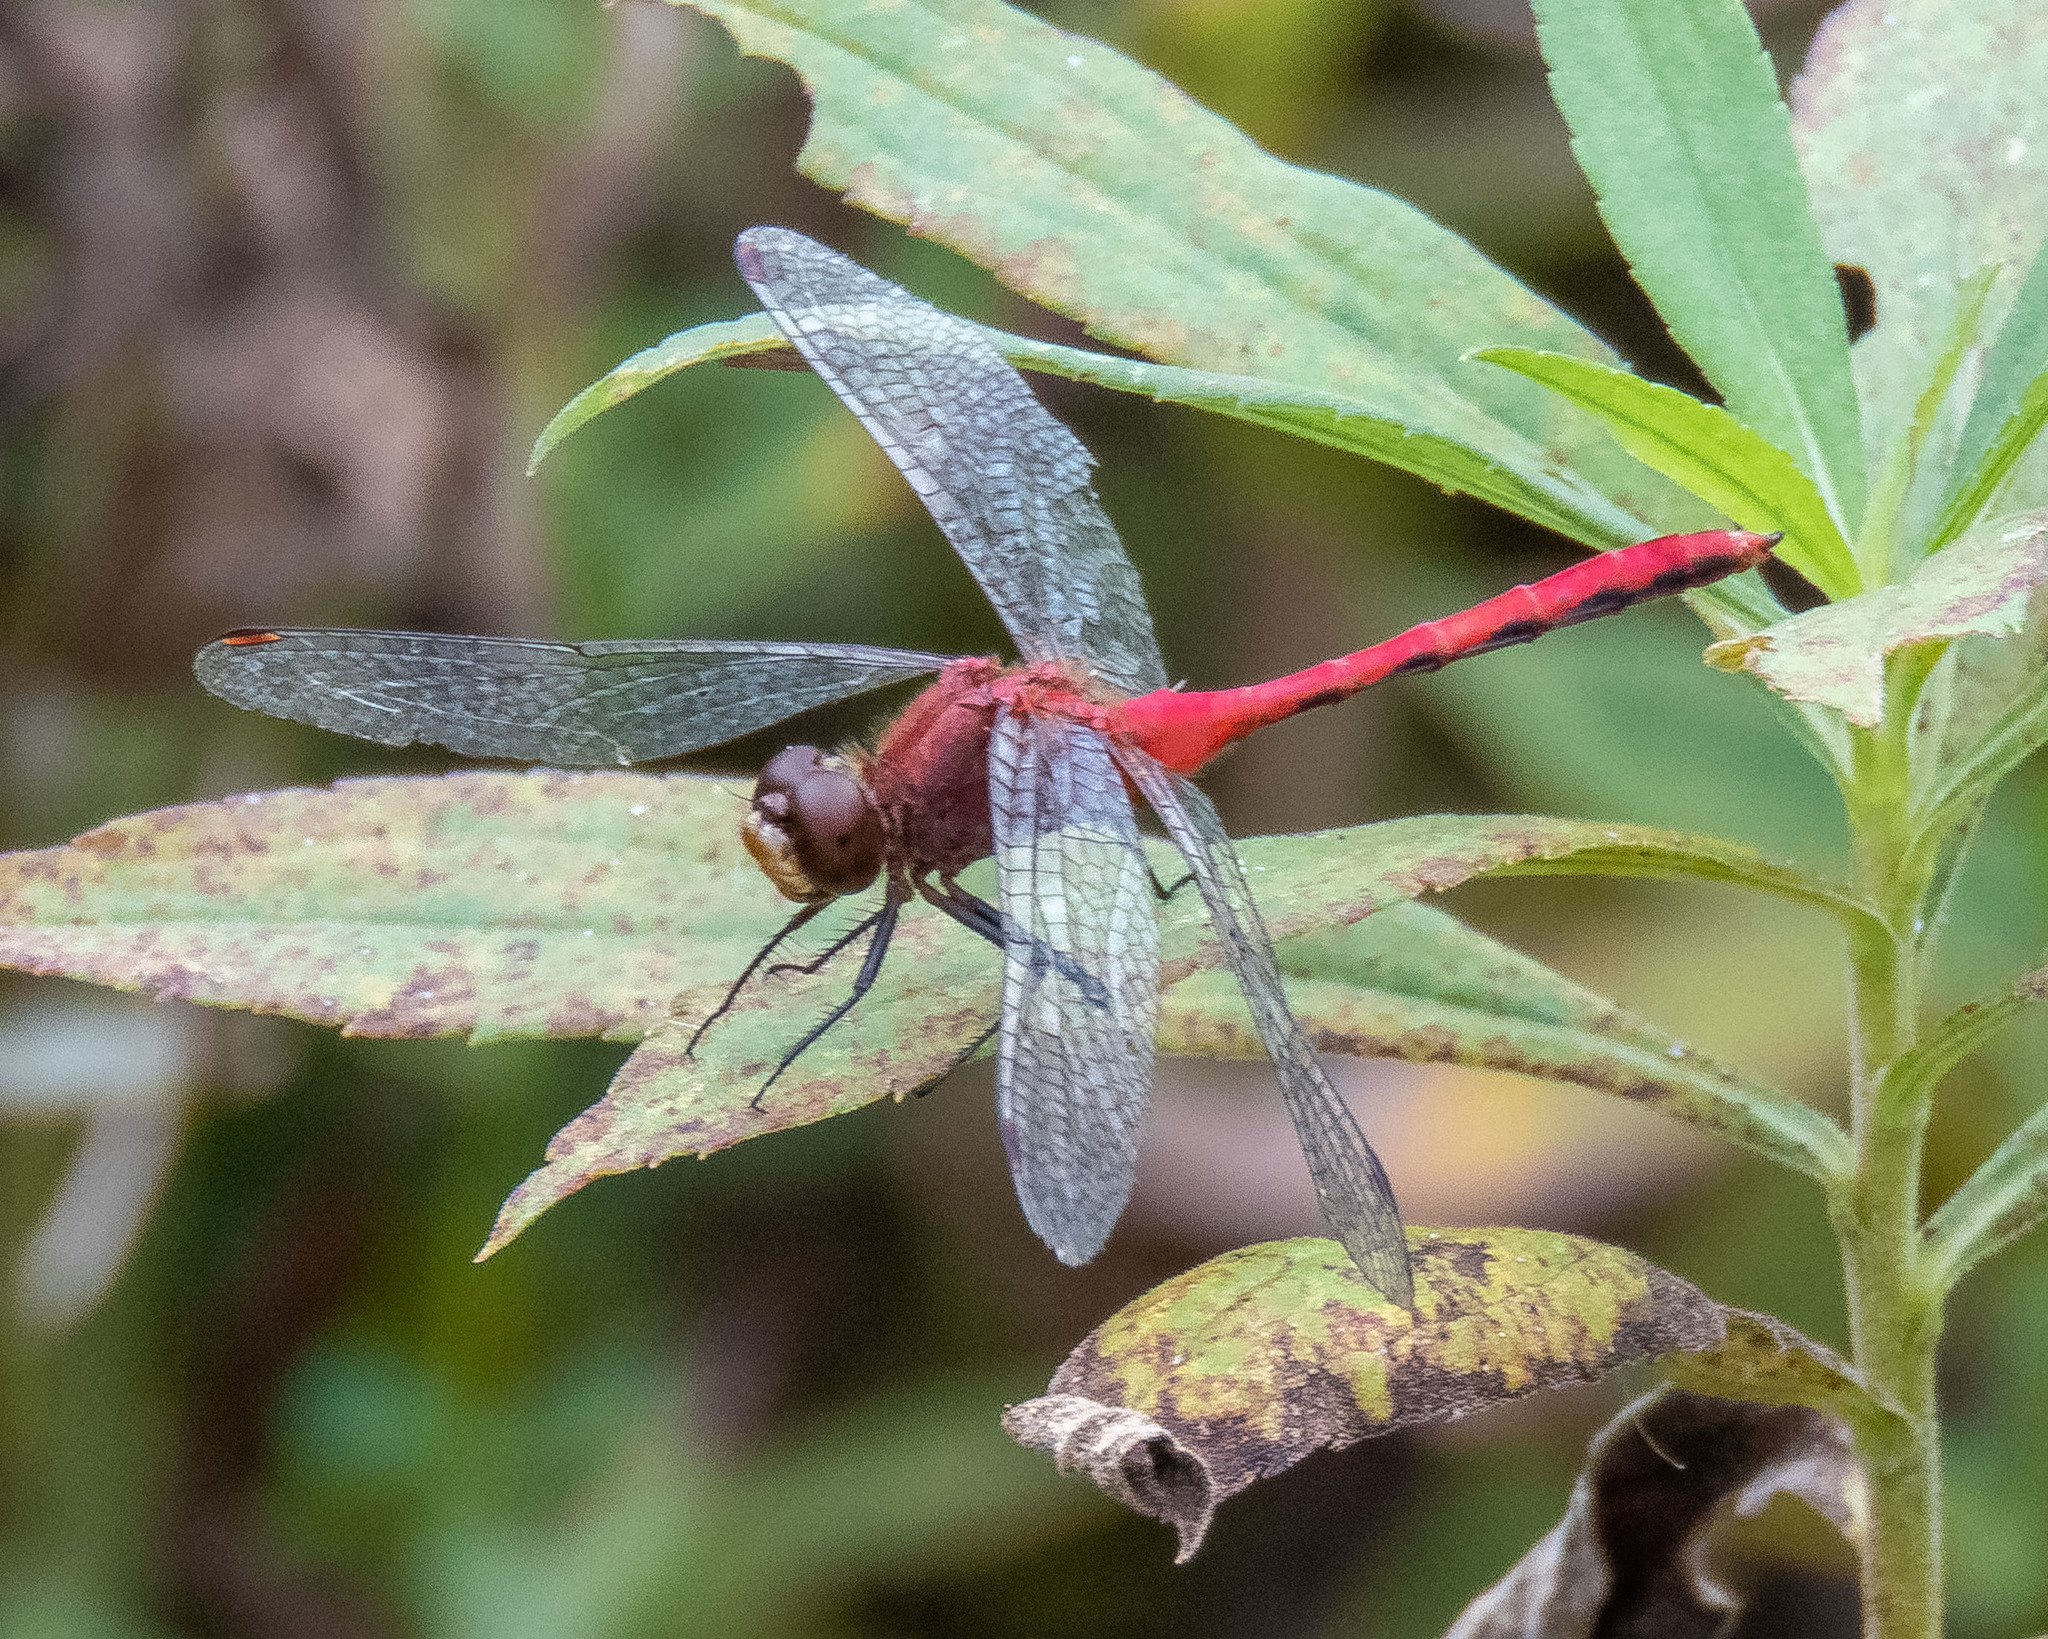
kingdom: Animalia
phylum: Arthropoda
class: Insecta
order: Odonata
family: Libellulidae
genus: Sympetrum
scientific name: Sympetrum
